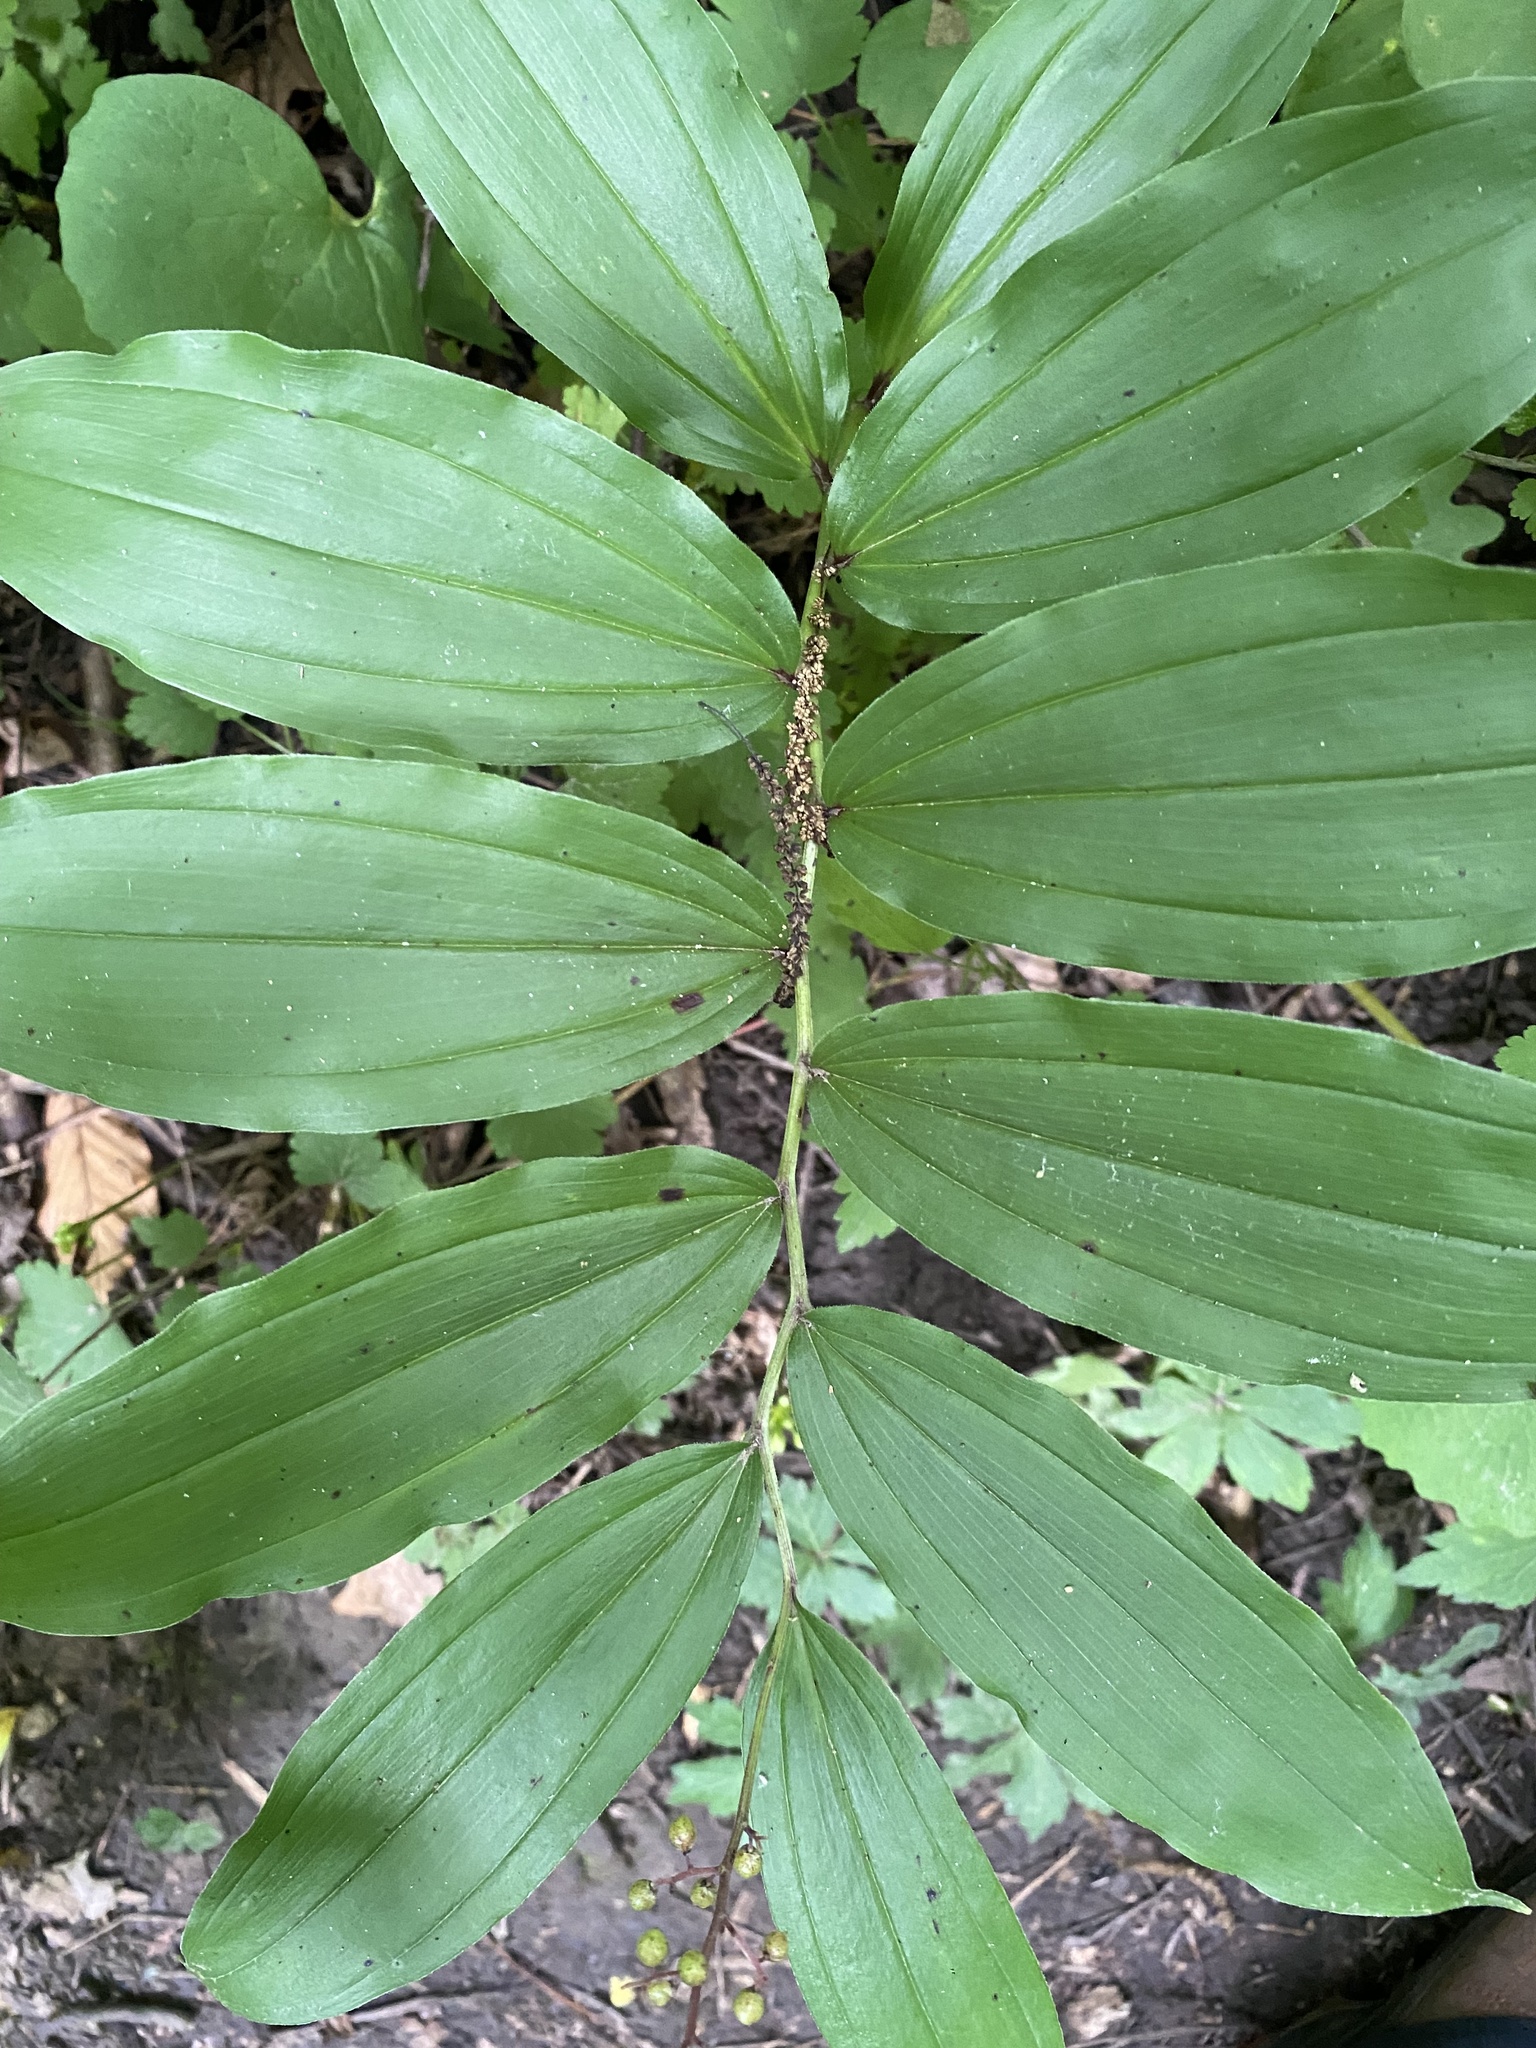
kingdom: Plantae
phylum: Tracheophyta
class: Liliopsida
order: Asparagales
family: Asparagaceae
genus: Maianthemum
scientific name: Maianthemum racemosum
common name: False spikenard
